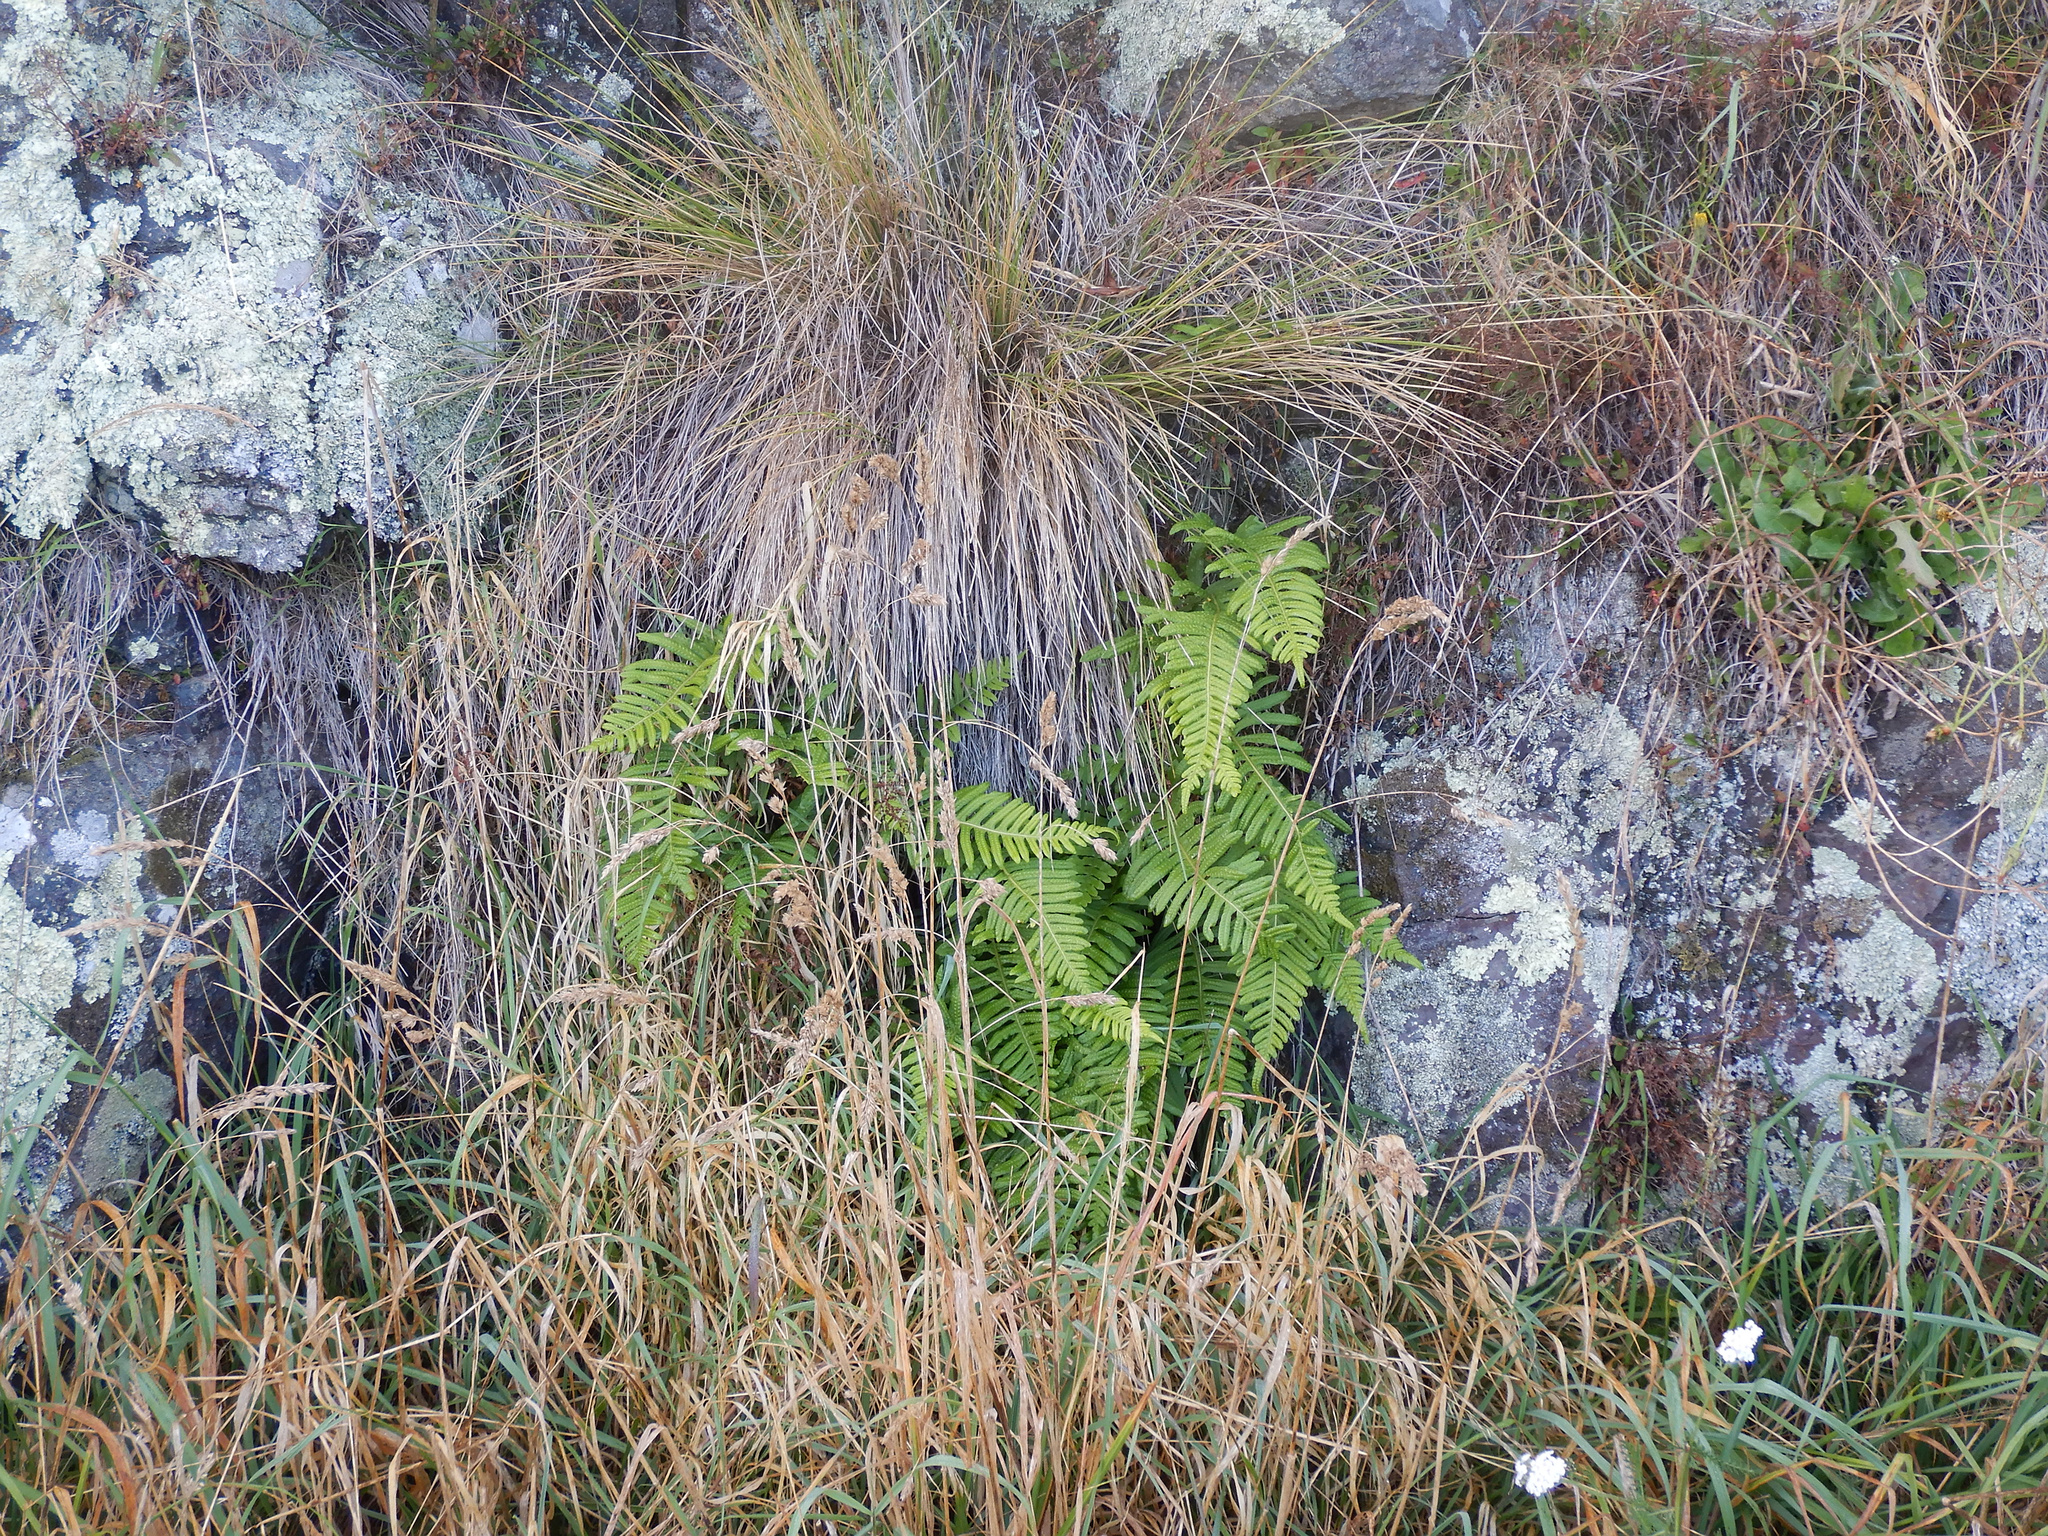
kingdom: Plantae
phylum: Tracheophyta
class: Polypodiopsida
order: Polypodiales
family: Polypodiaceae
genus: Polypodium
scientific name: Polypodium vulgare
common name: Common polypody
